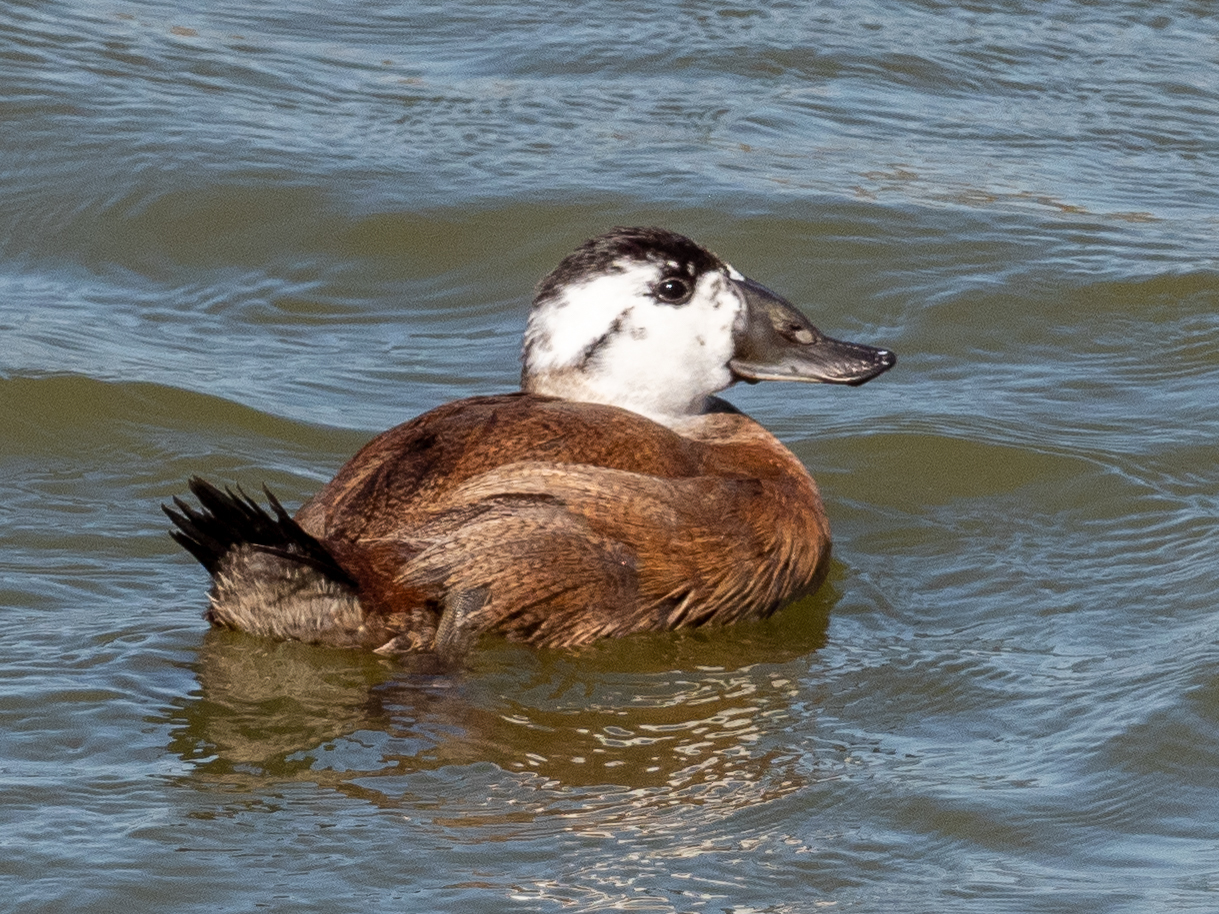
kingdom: Animalia
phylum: Chordata
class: Aves
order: Anseriformes
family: Anatidae
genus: Oxyura
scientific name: Oxyura leucocephala
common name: White-headed duck
